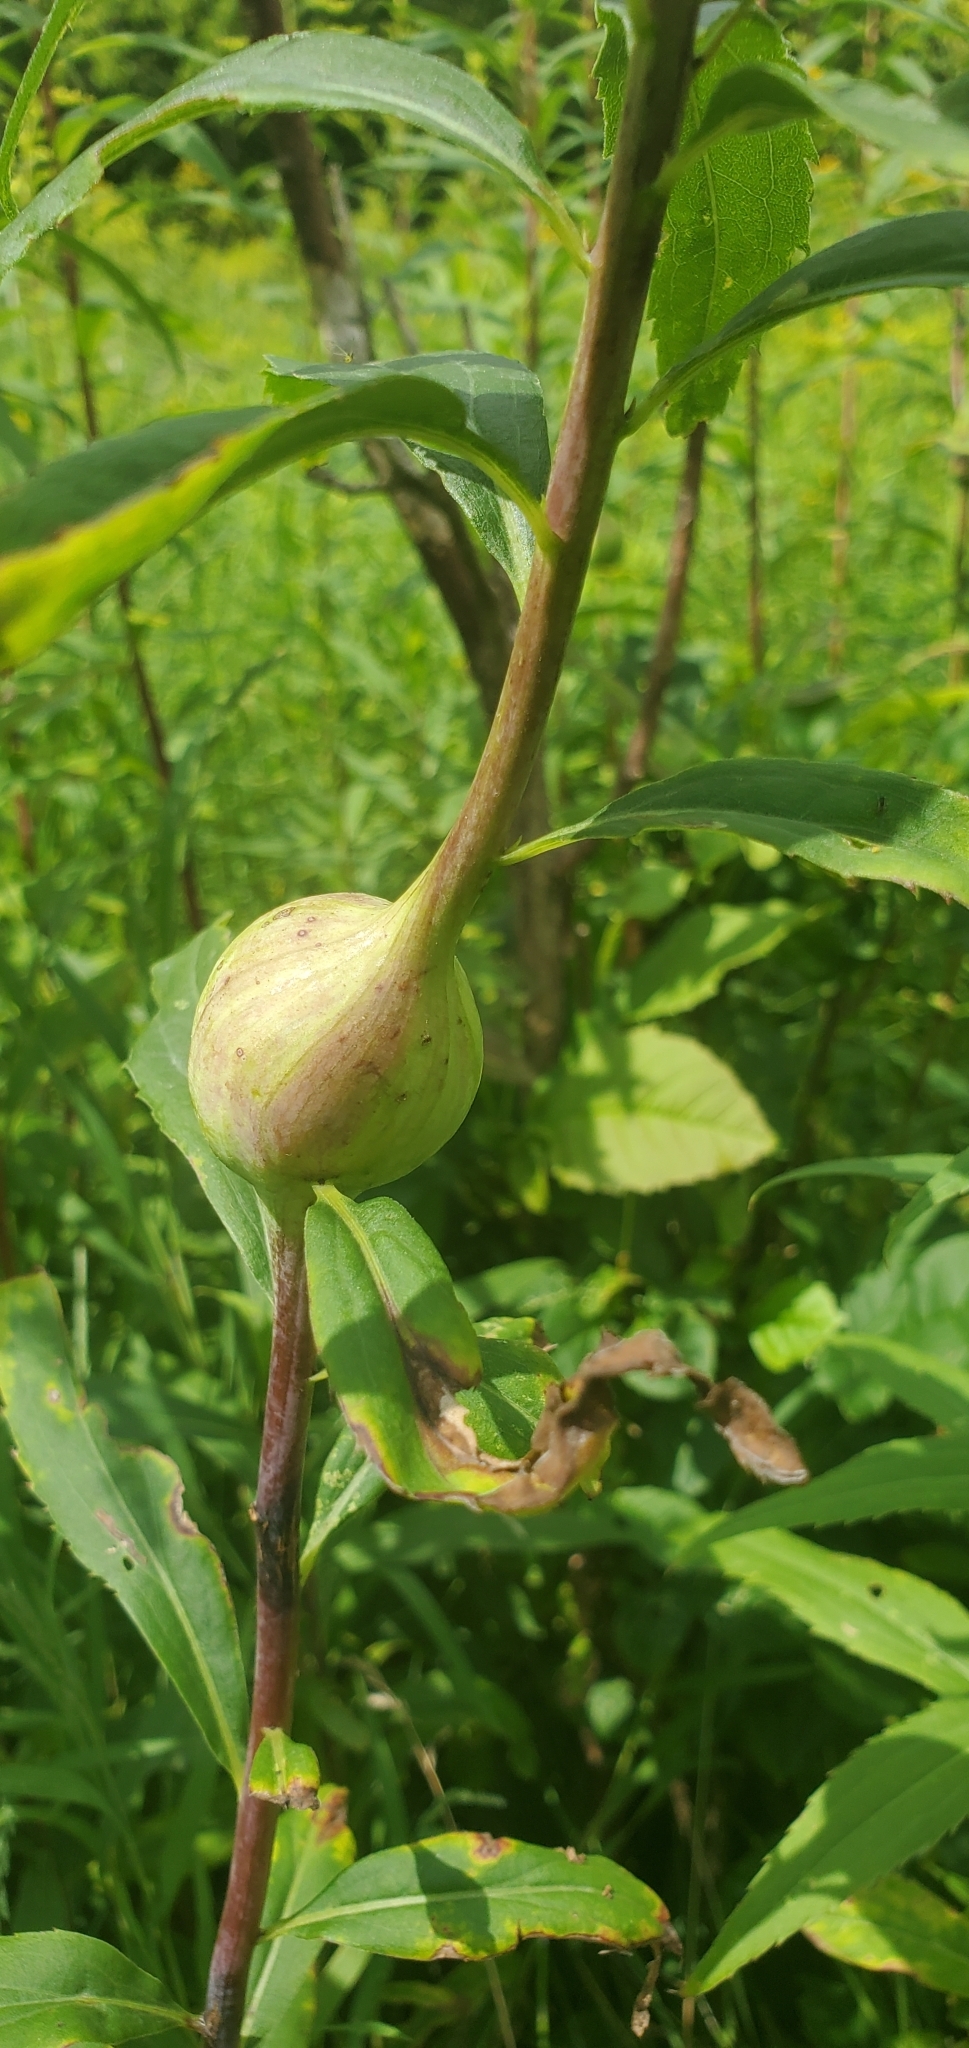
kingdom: Animalia
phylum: Arthropoda
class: Insecta
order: Diptera
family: Tephritidae
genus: Eurosta
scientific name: Eurosta solidaginis
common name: Goldenrod gall fly
